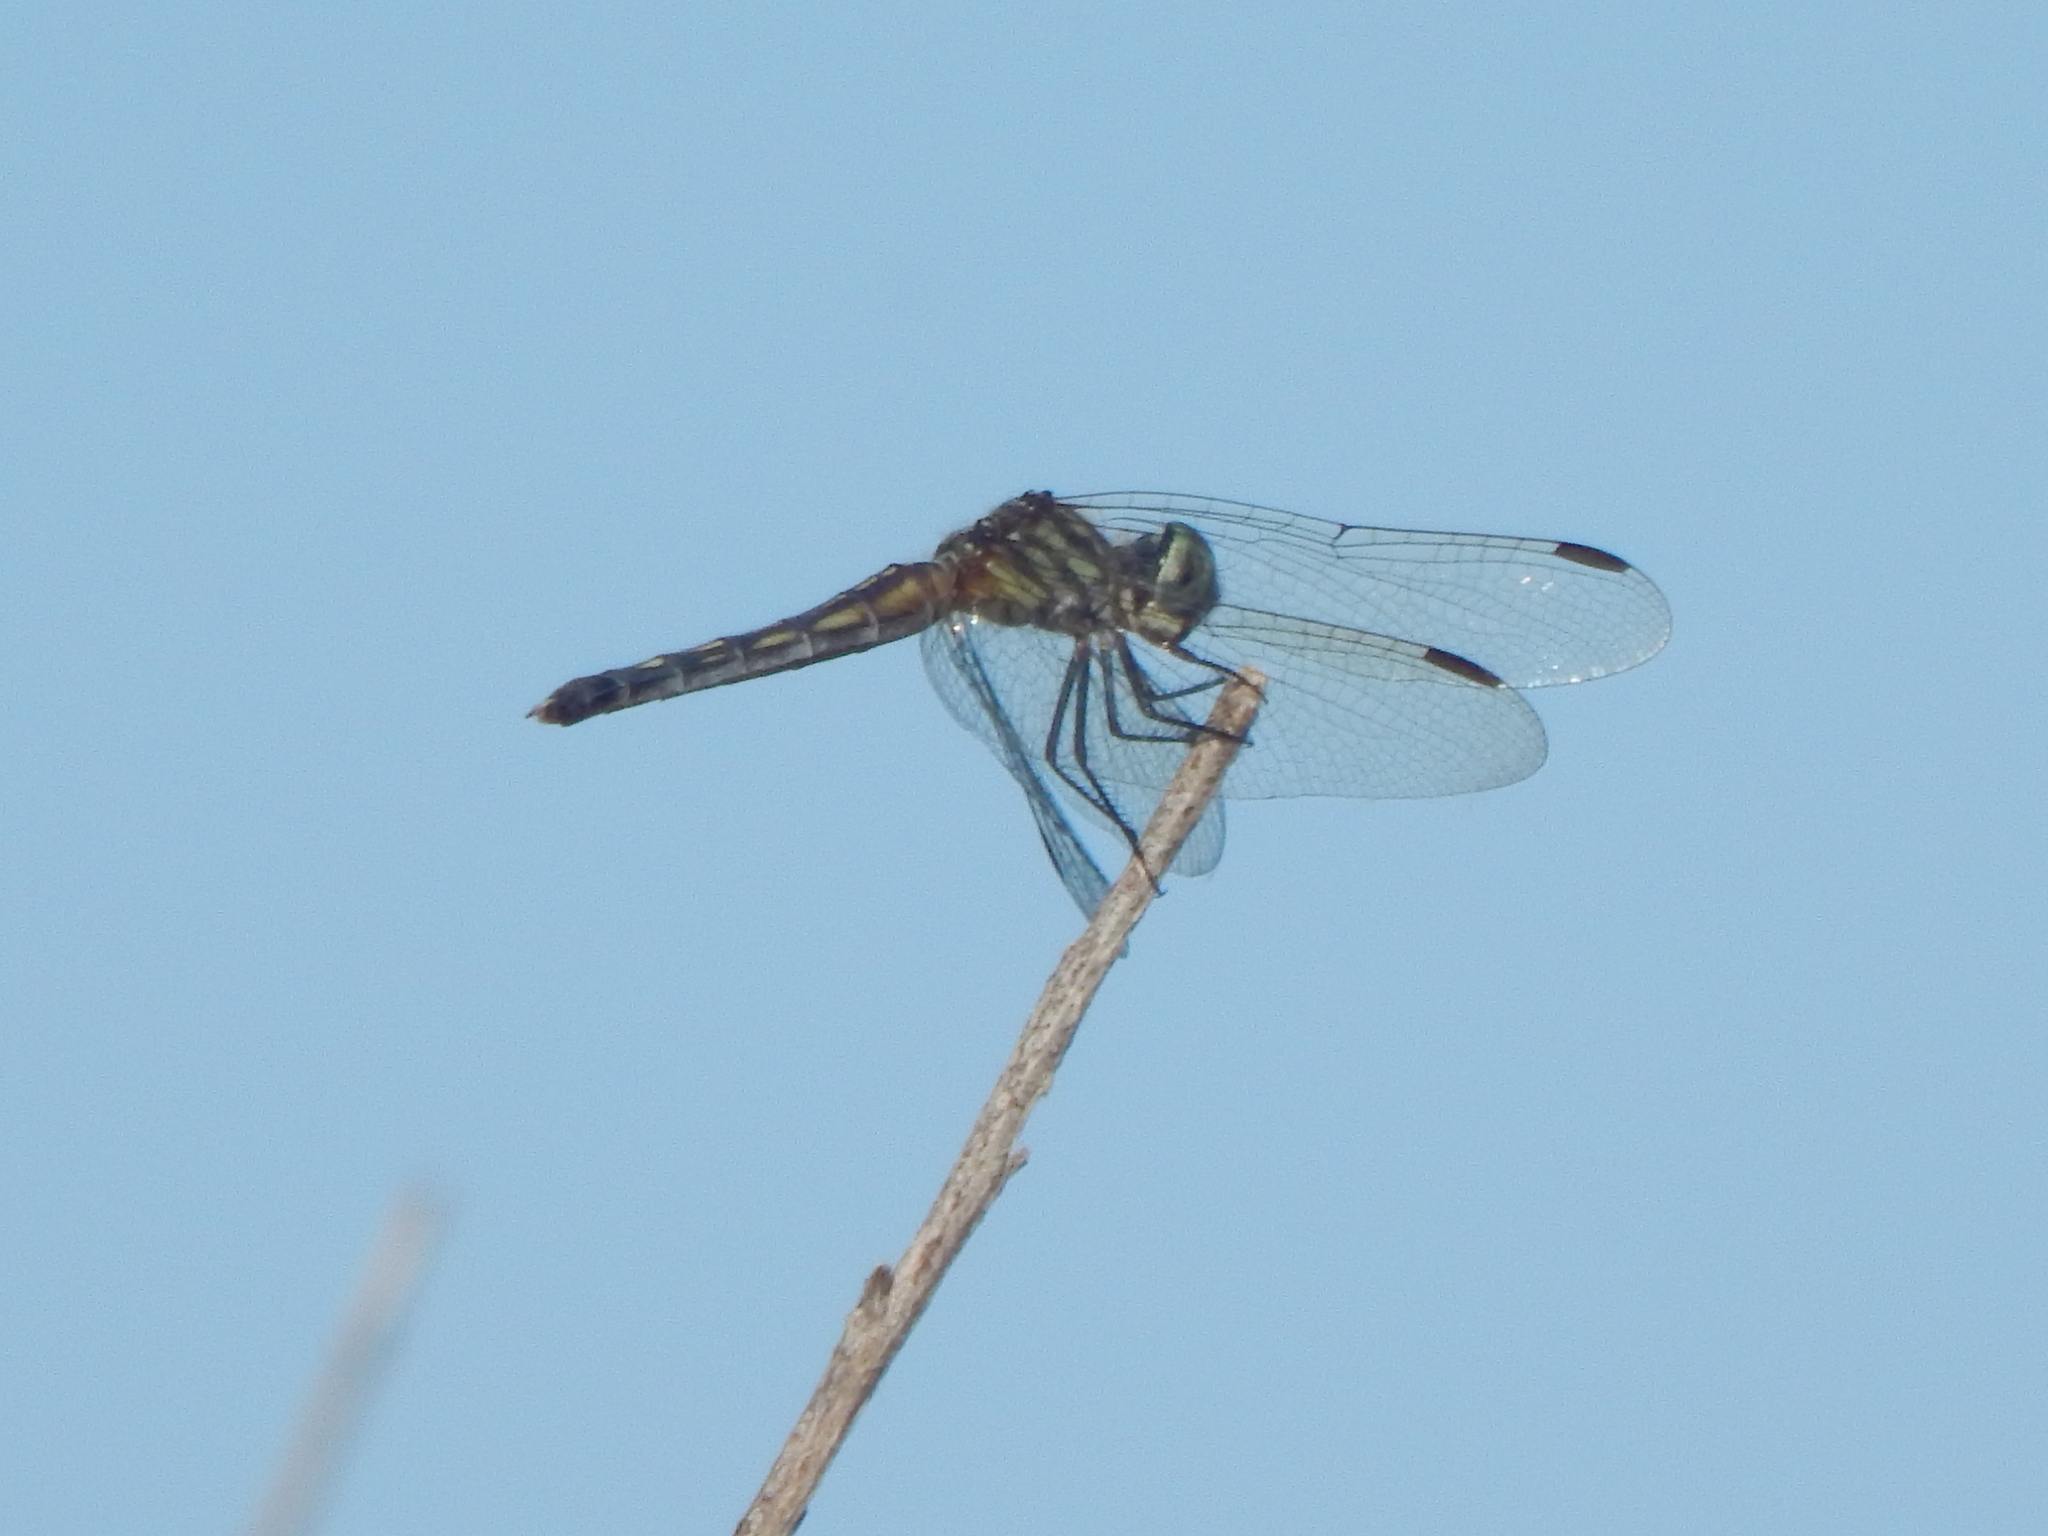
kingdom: Animalia
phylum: Arthropoda
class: Insecta
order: Odonata
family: Libellulidae
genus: Pachydiplax
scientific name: Pachydiplax longipennis
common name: Blue dasher
